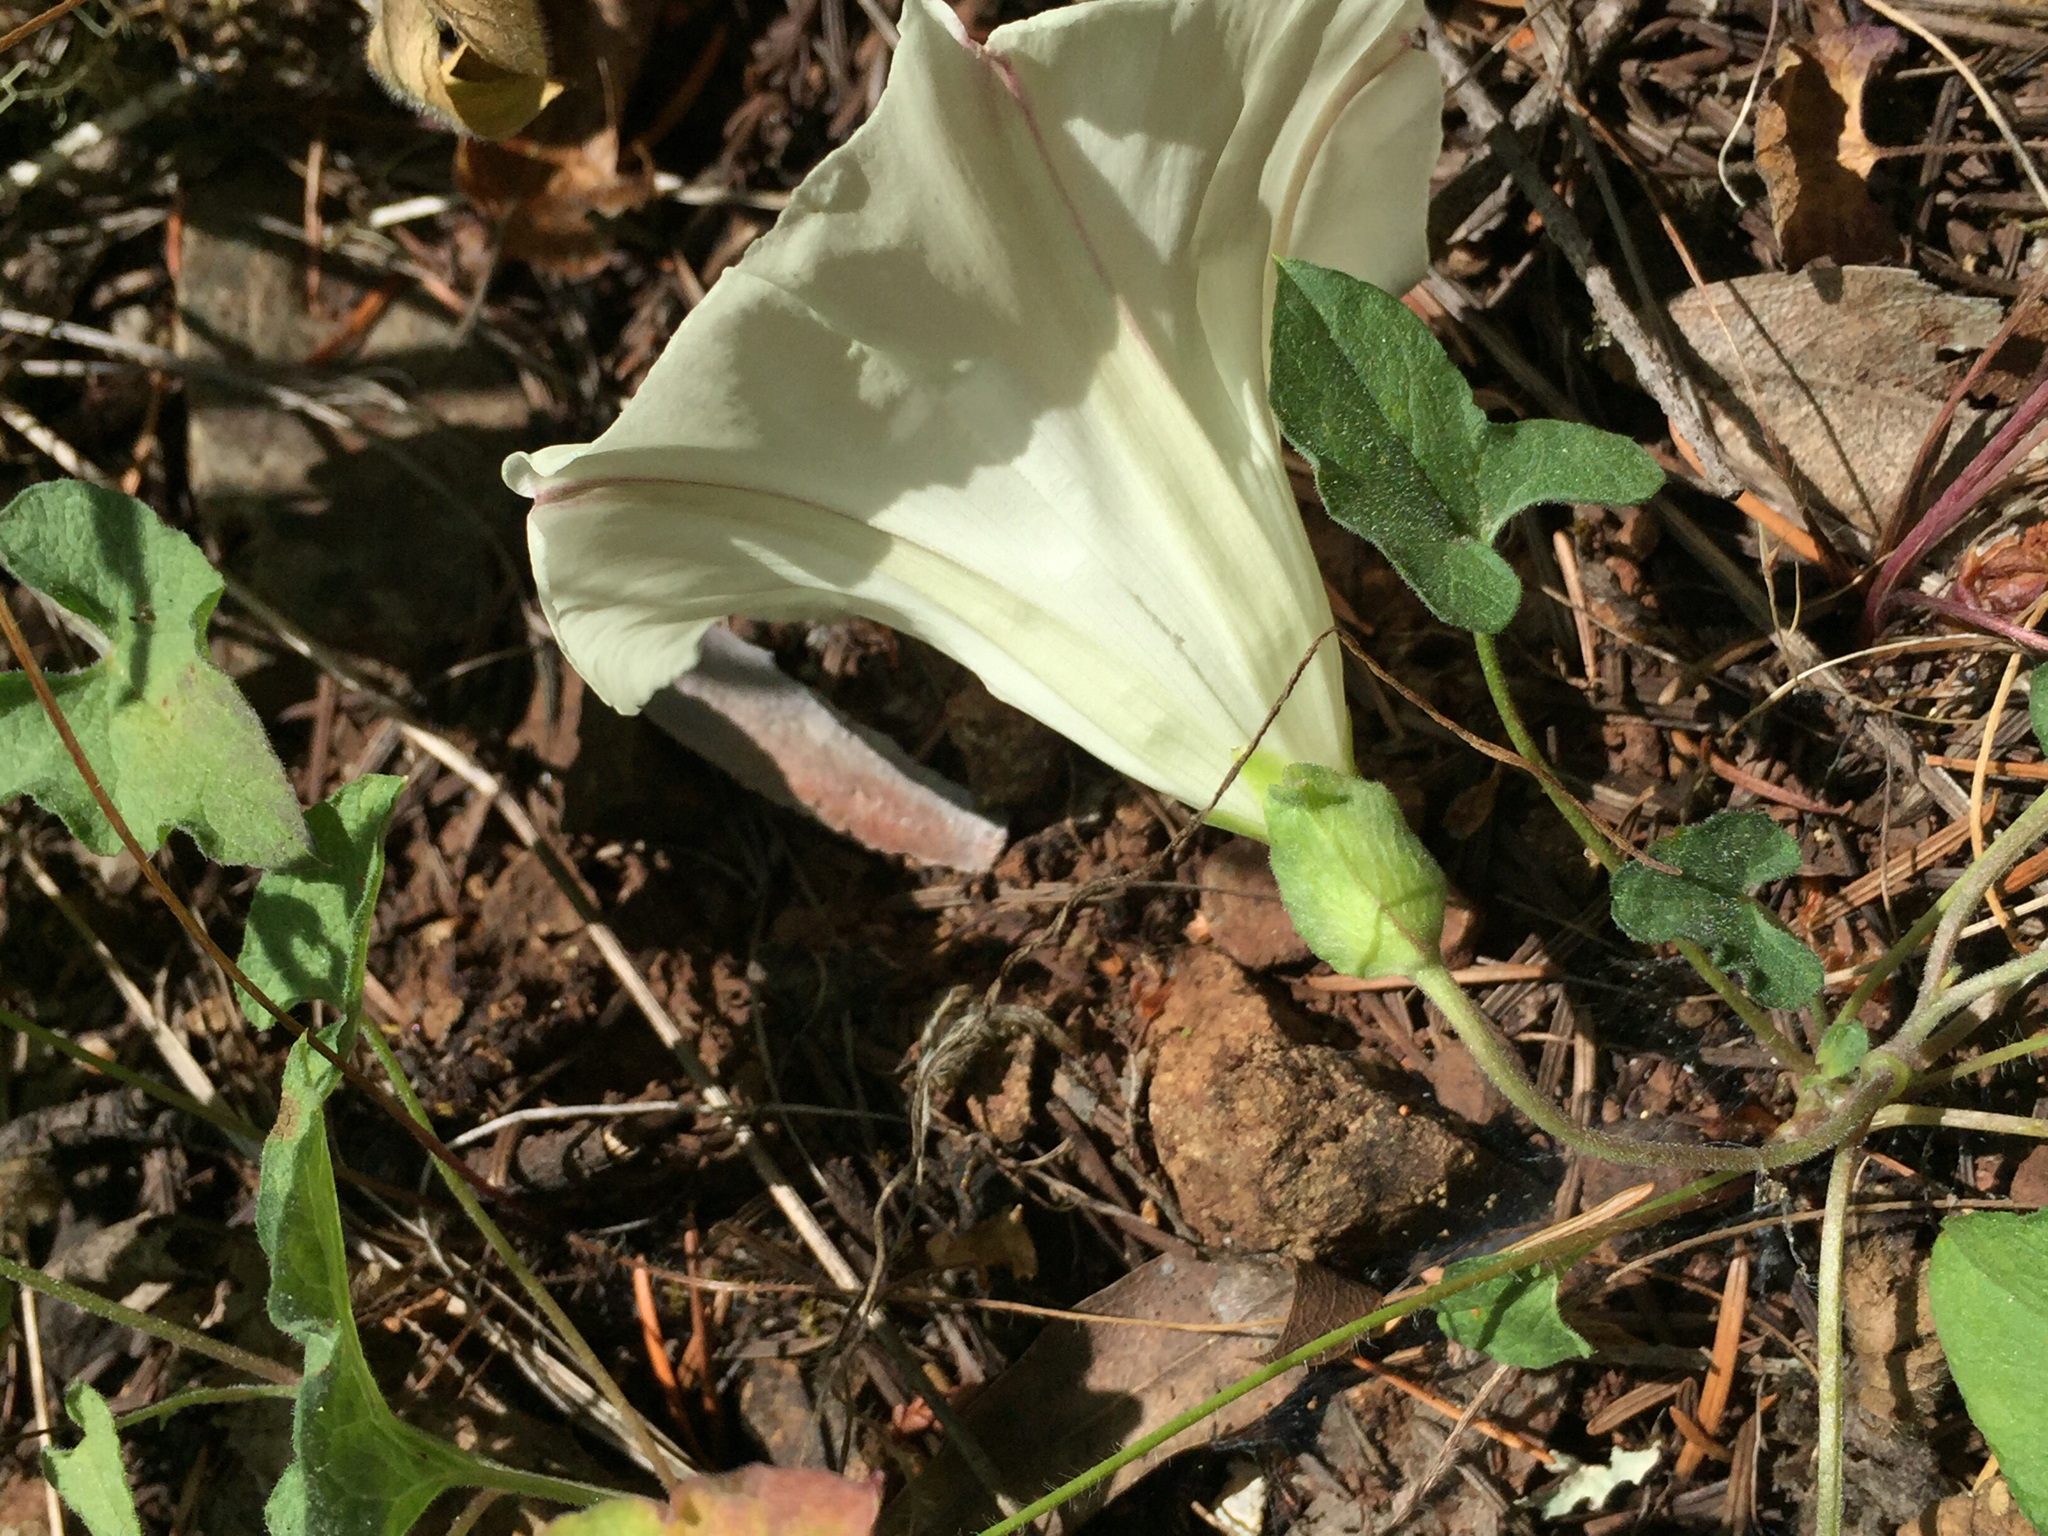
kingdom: Plantae
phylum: Tracheophyta
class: Magnoliopsida
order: Solanales
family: Convolvulaceae
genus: Calystegia
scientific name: Calystegia subacaulis
